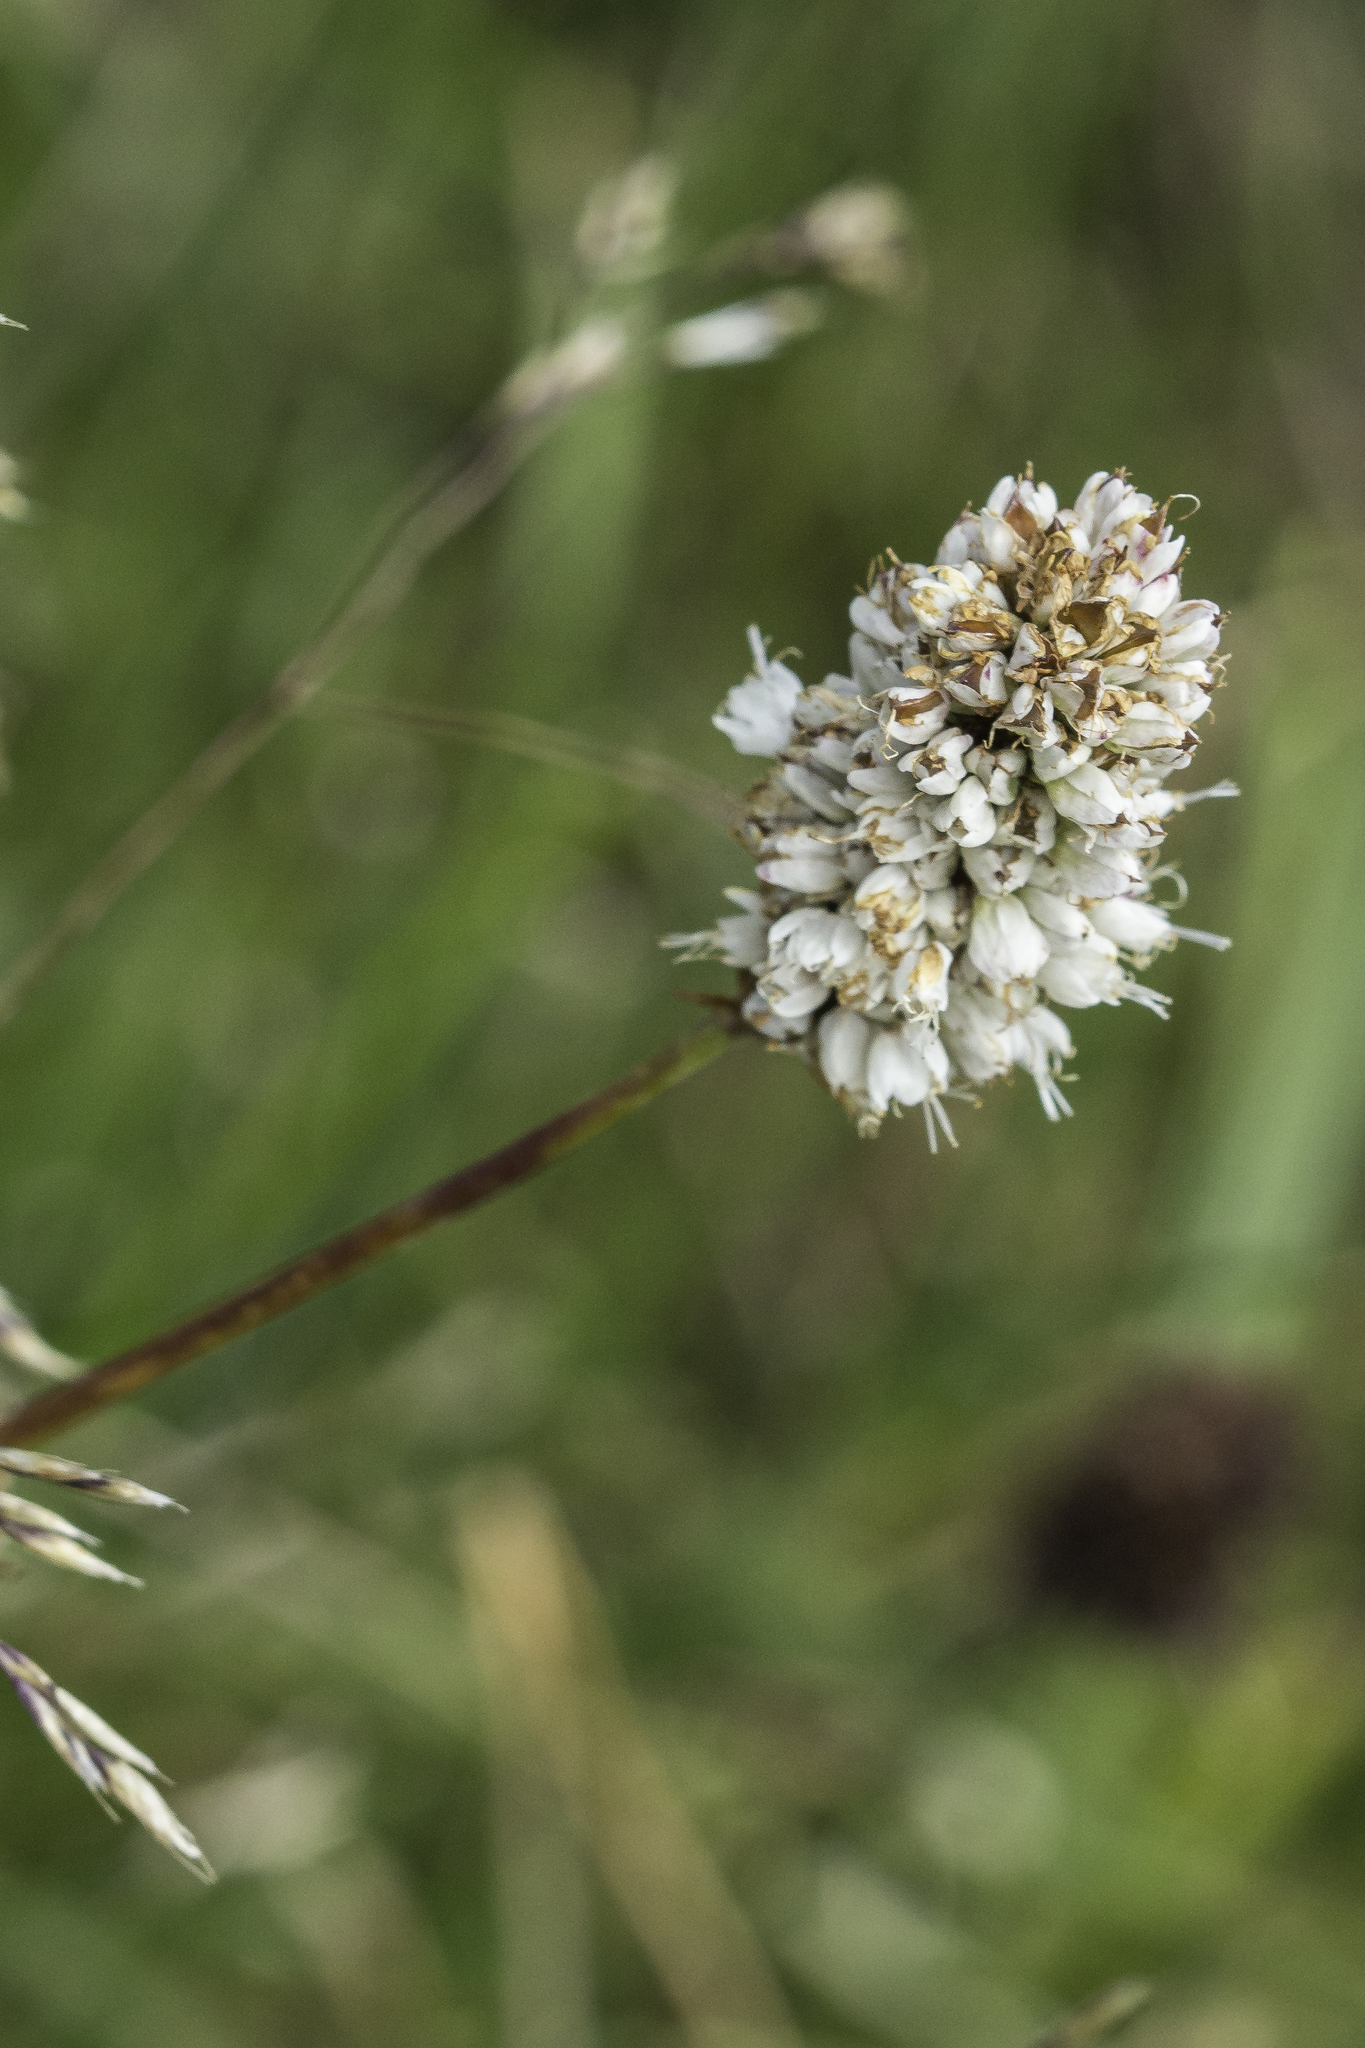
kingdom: Plantae
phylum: Tracheophyta
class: Magnoliopsida
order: Caryophyllales
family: Polygonaceae
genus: Bistorta
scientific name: Bistorta bistortoides
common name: American bistort
